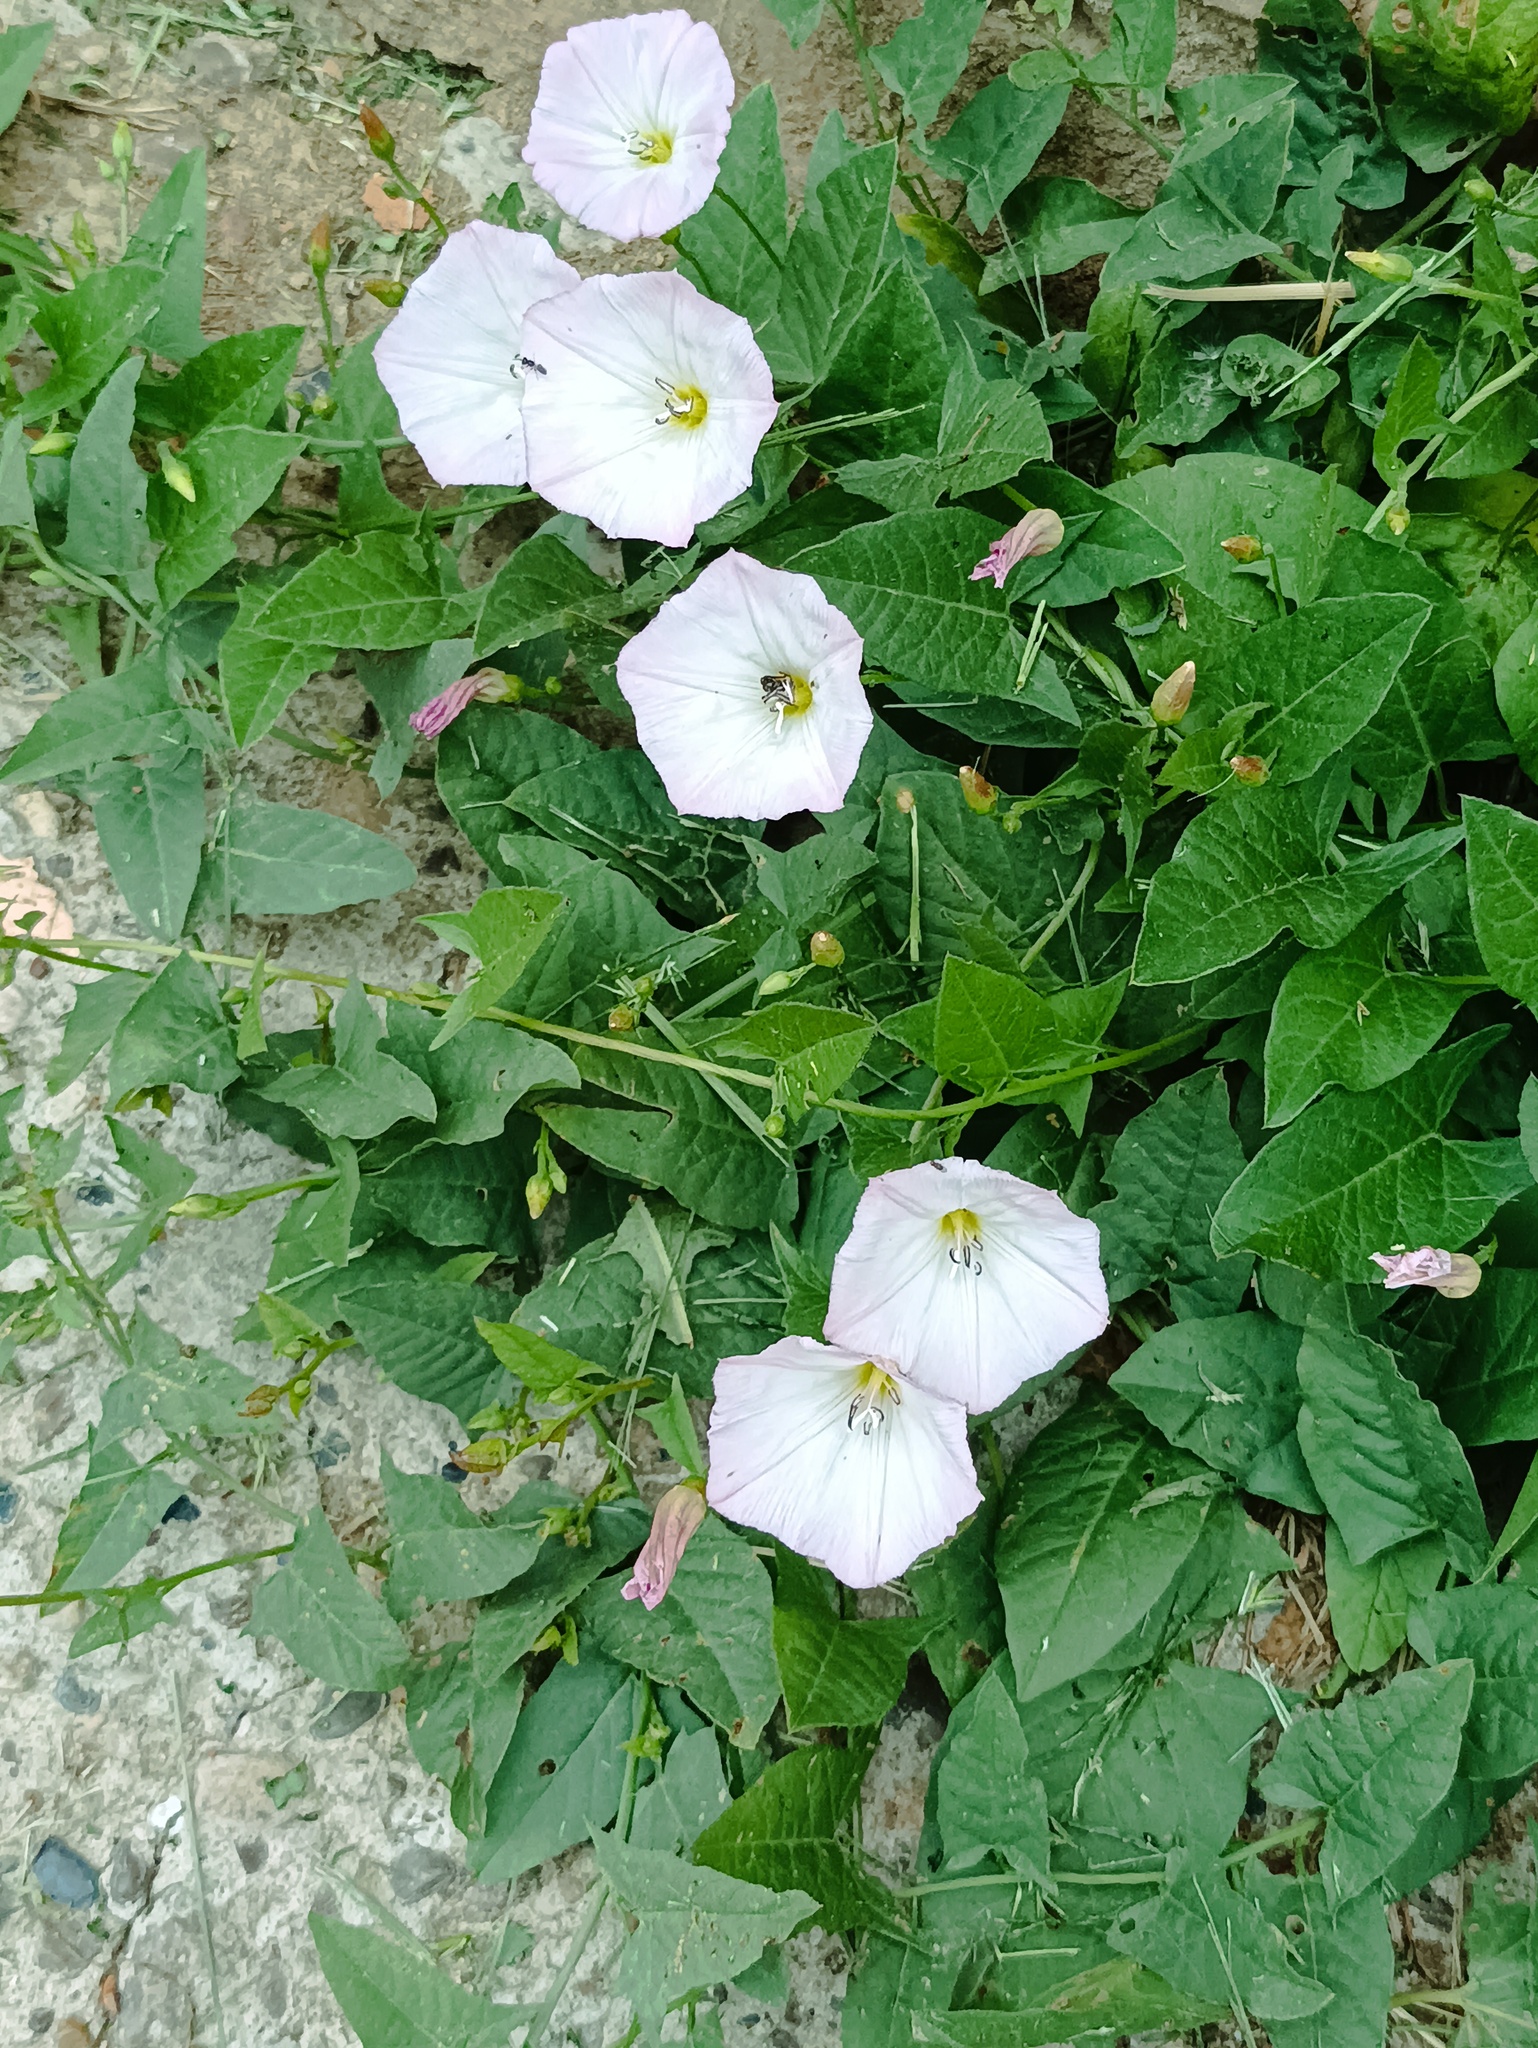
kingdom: Plantae
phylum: Tracheophyta
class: Magnoliopsida
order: Solanales
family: Convolvulaceae
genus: Convolvulus
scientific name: Convolvulus arvensis
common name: Field bindweed
